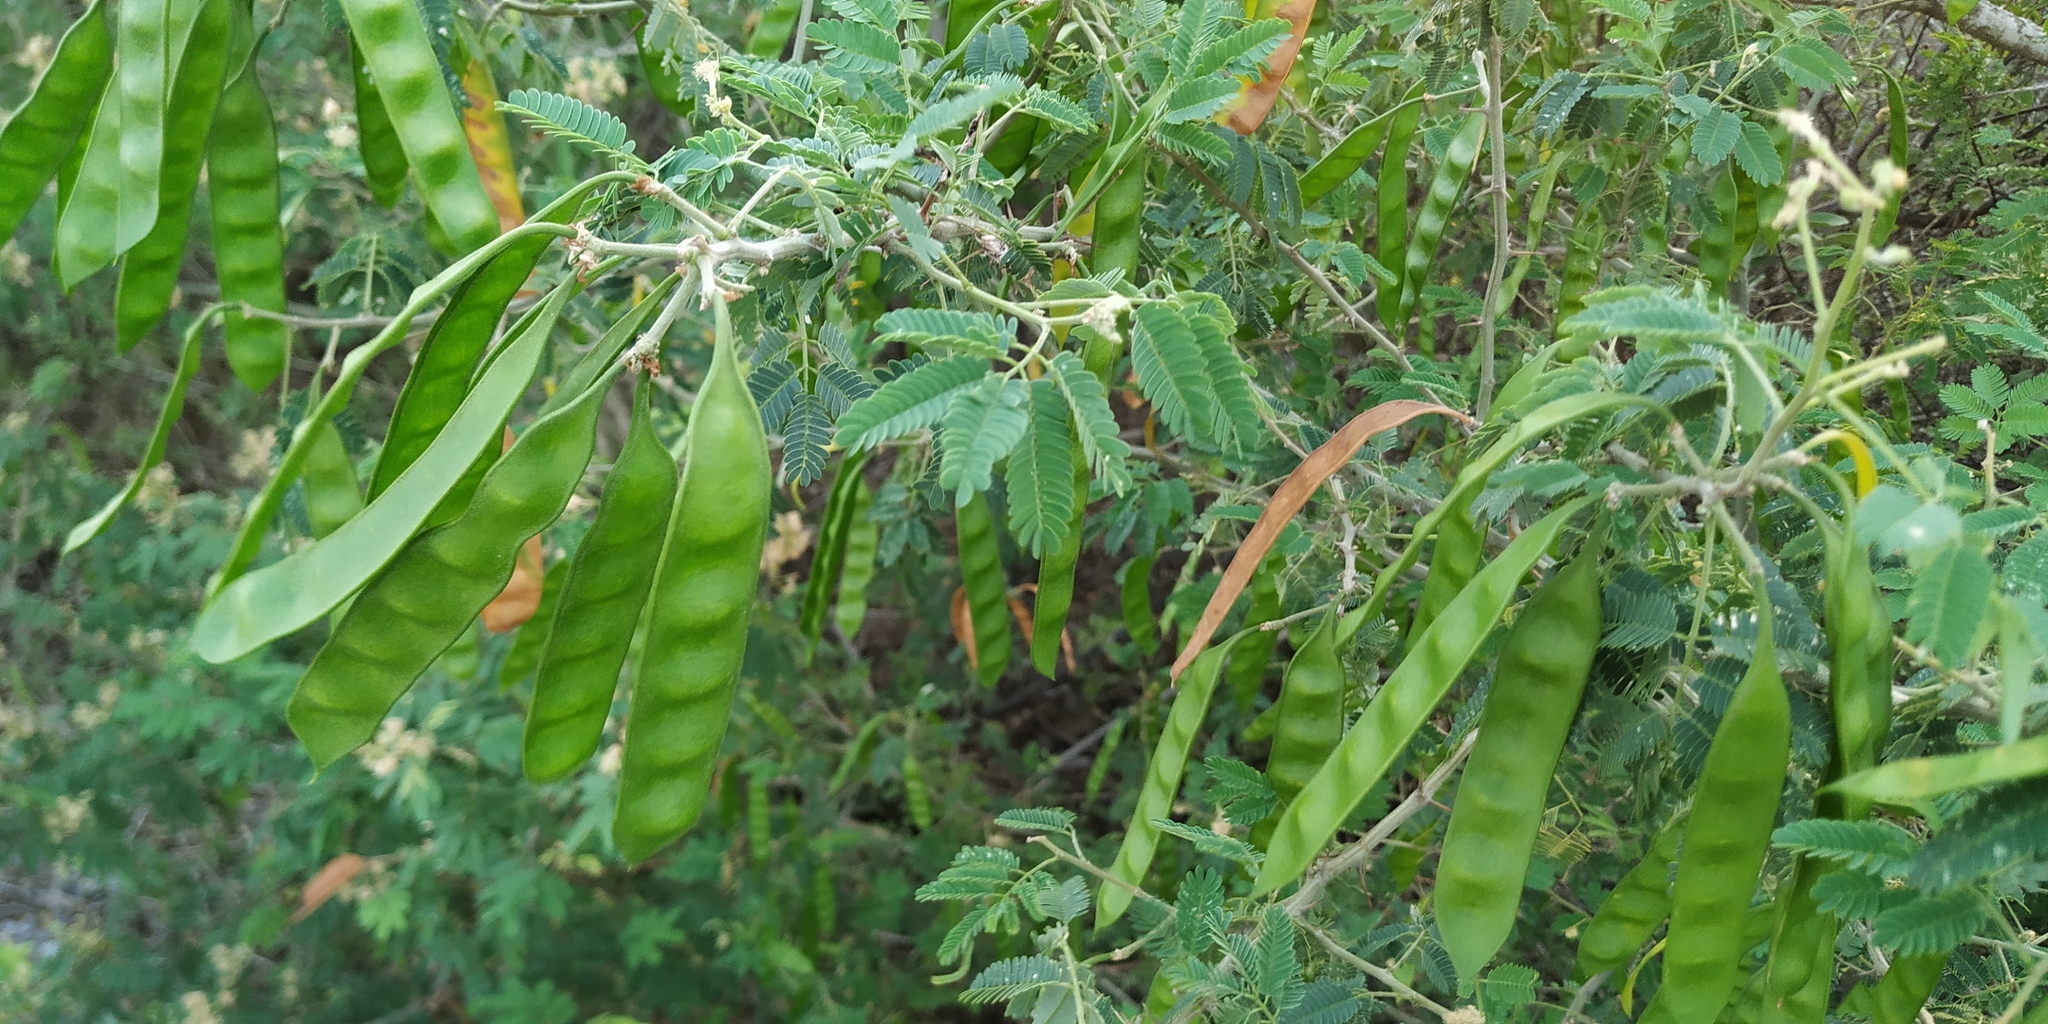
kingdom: Plantae
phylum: Tracheophyta
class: Magnoliopsida
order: Fabales
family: Fabaceae
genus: Havardia
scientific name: Havardia pallens
